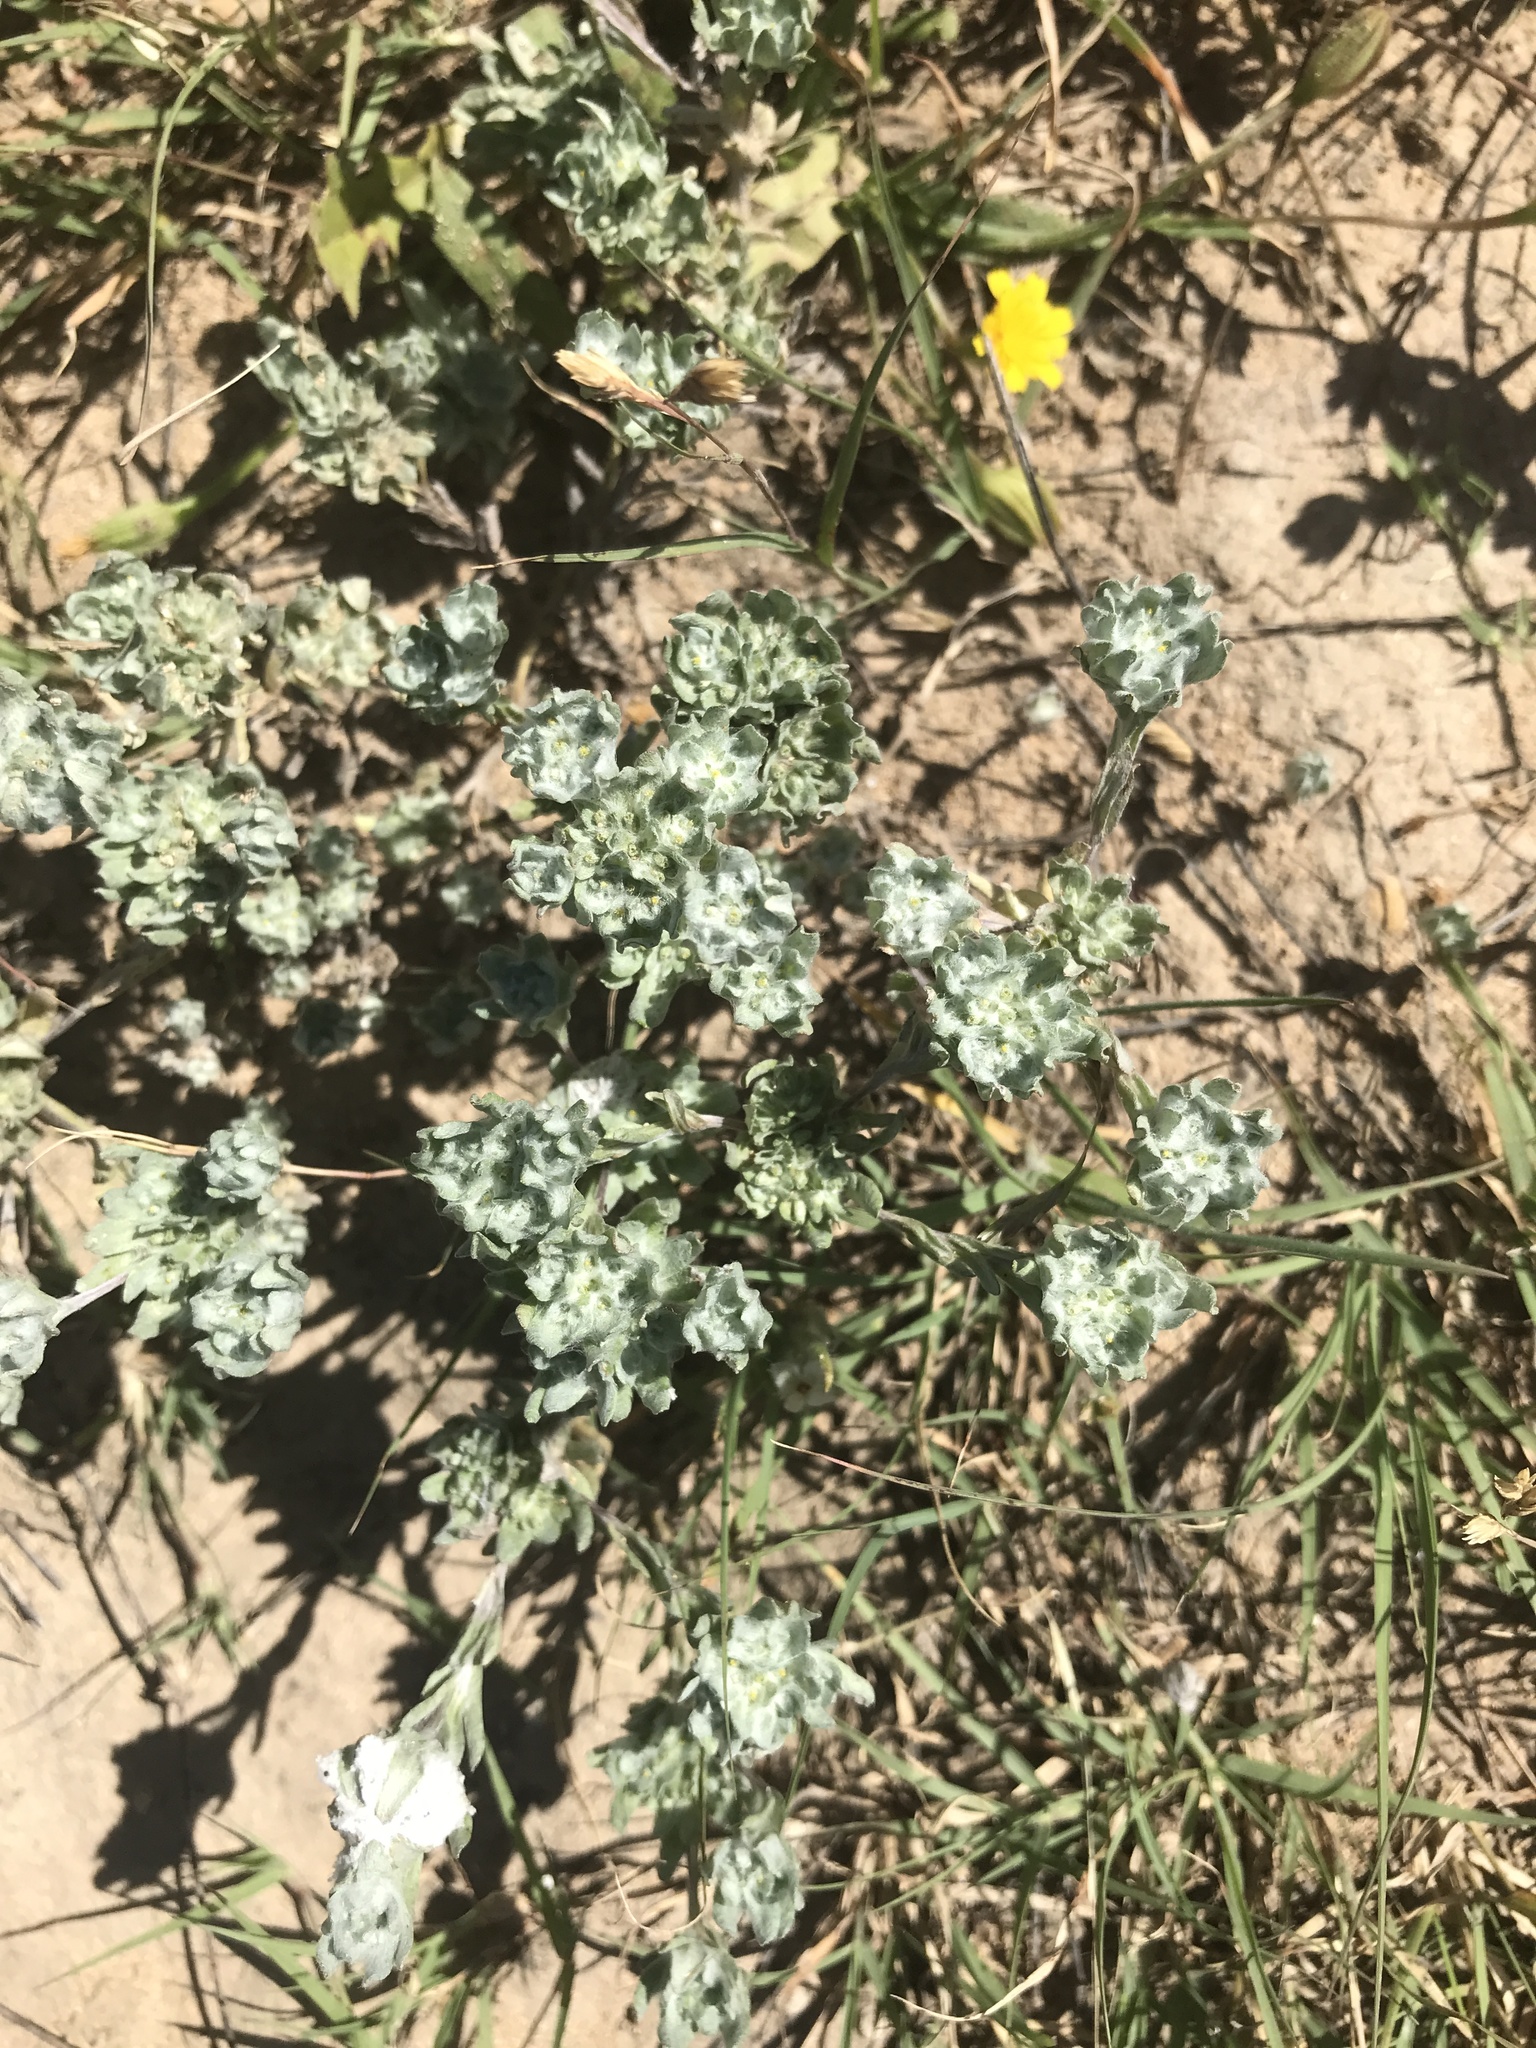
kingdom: Plantae
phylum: Tracheophyta
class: Magnoliopsida
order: Asterales
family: Asteraceae
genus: Diaperia
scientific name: Diaperia prolifera
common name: Big-head rabbit-tobacco
